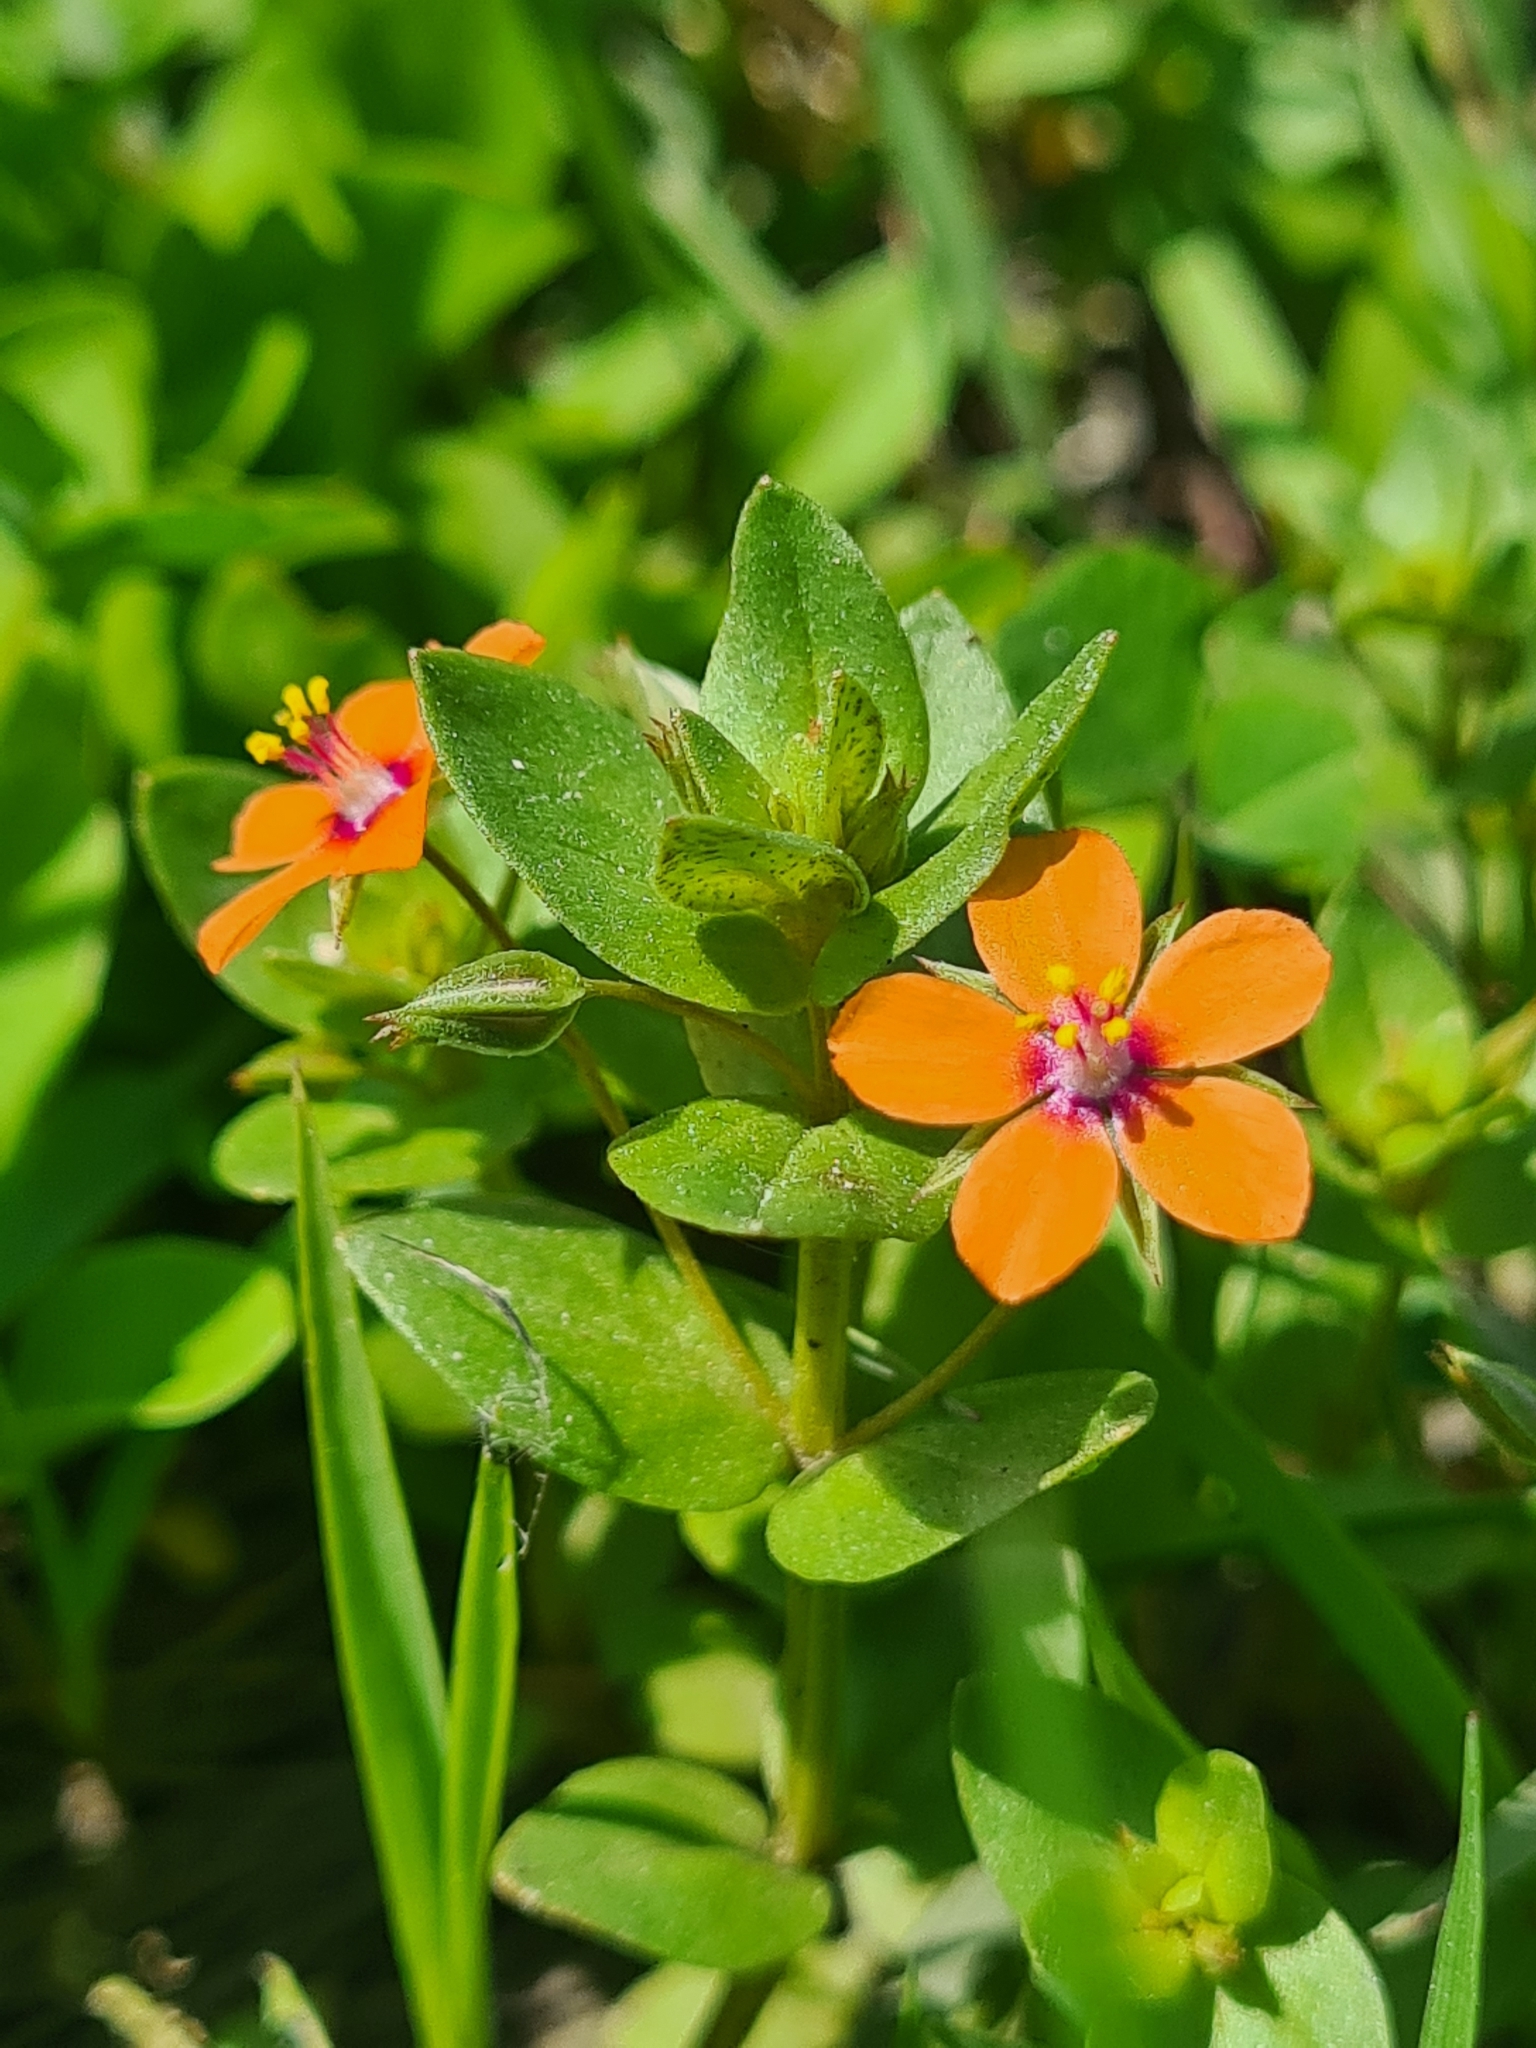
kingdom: Plantae
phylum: Tracheophyta
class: Magnoliopsida
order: Ericales
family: Primulaceae
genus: Lysimachia
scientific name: Lysimachia arvensis
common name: Scarlet pimpernel
